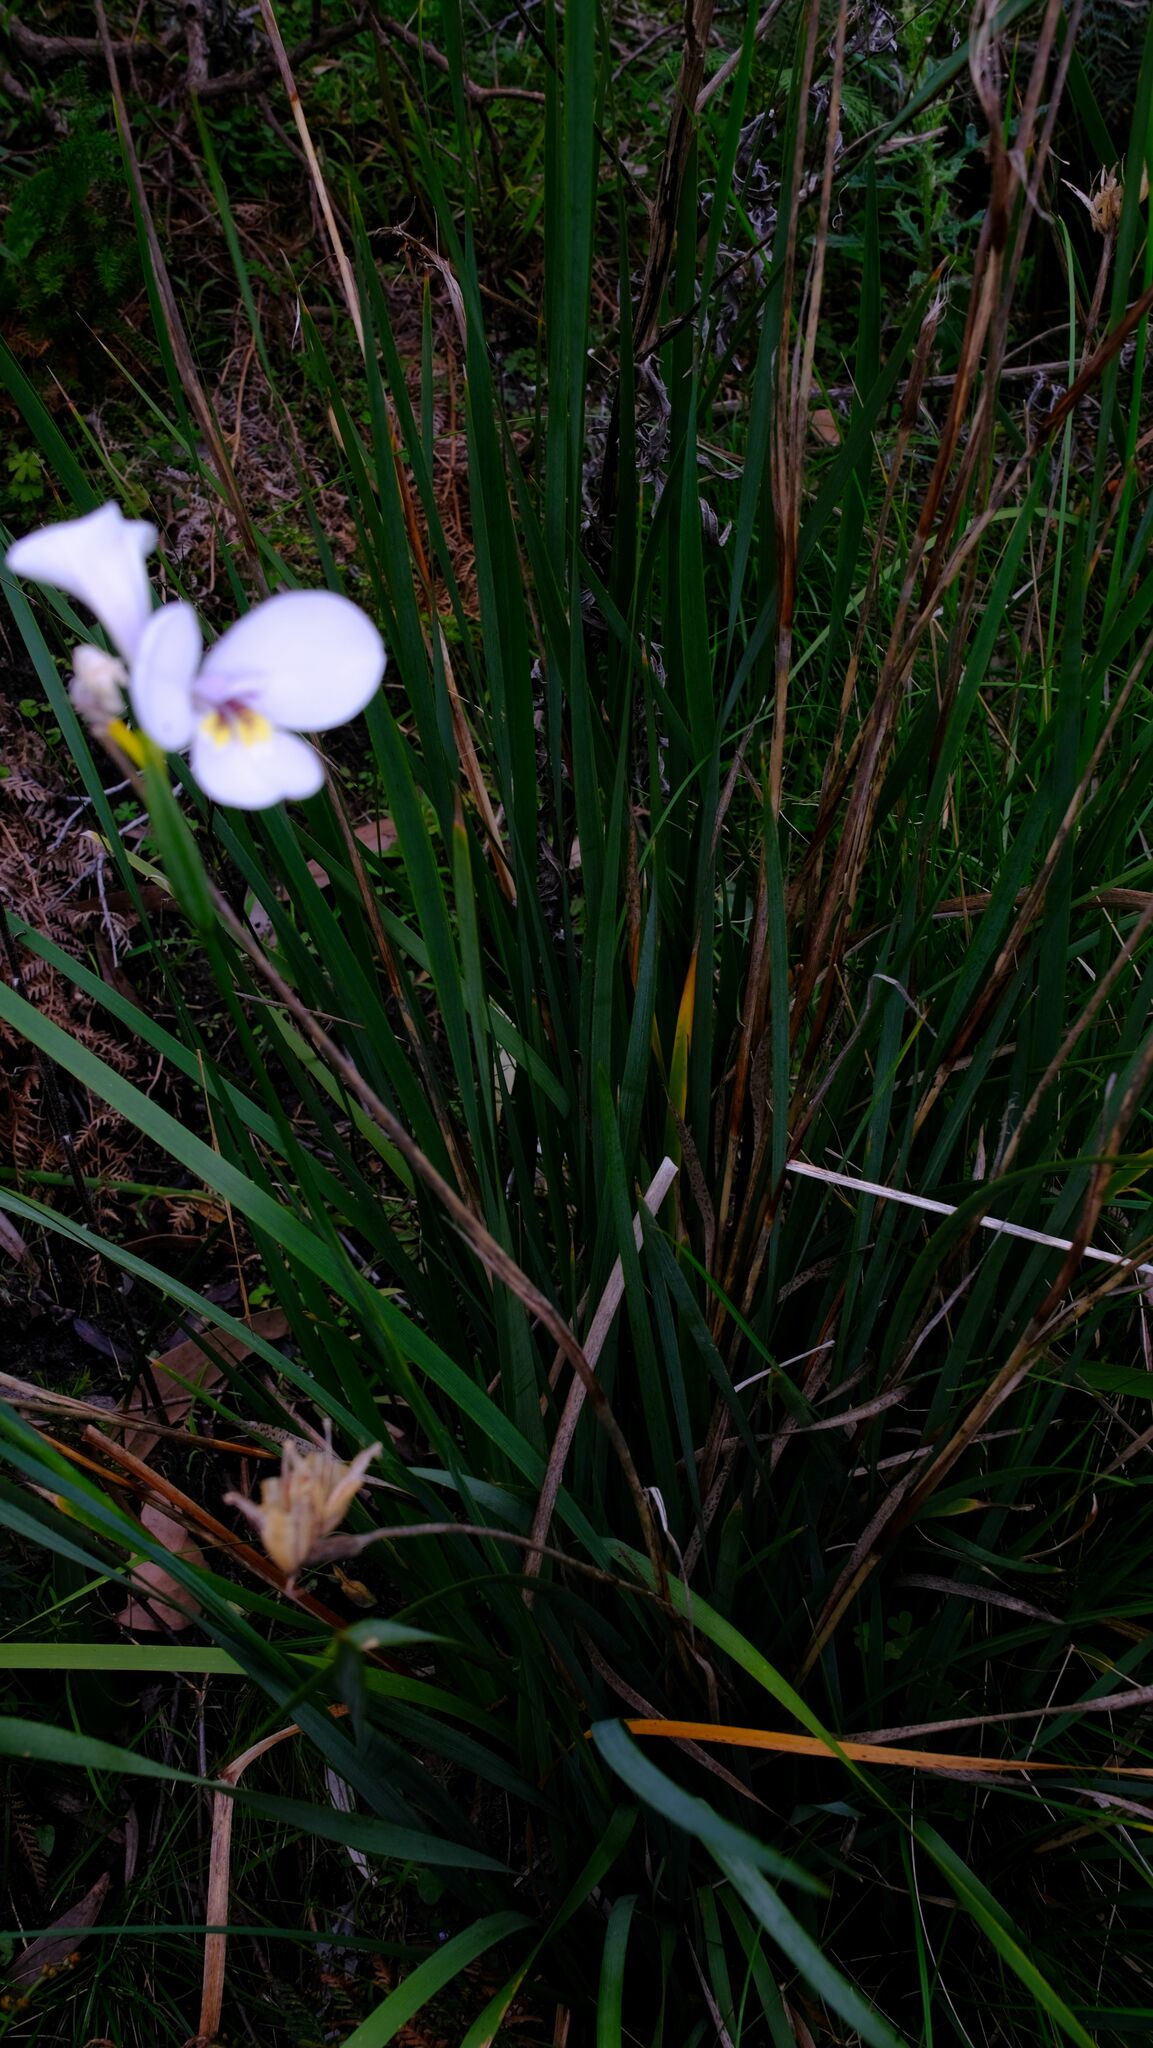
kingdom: Plantae
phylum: Tracheophyta
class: Liliopsida
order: Asparagales
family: Iridaceae
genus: Diplarrena
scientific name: Diplarrena moraea
